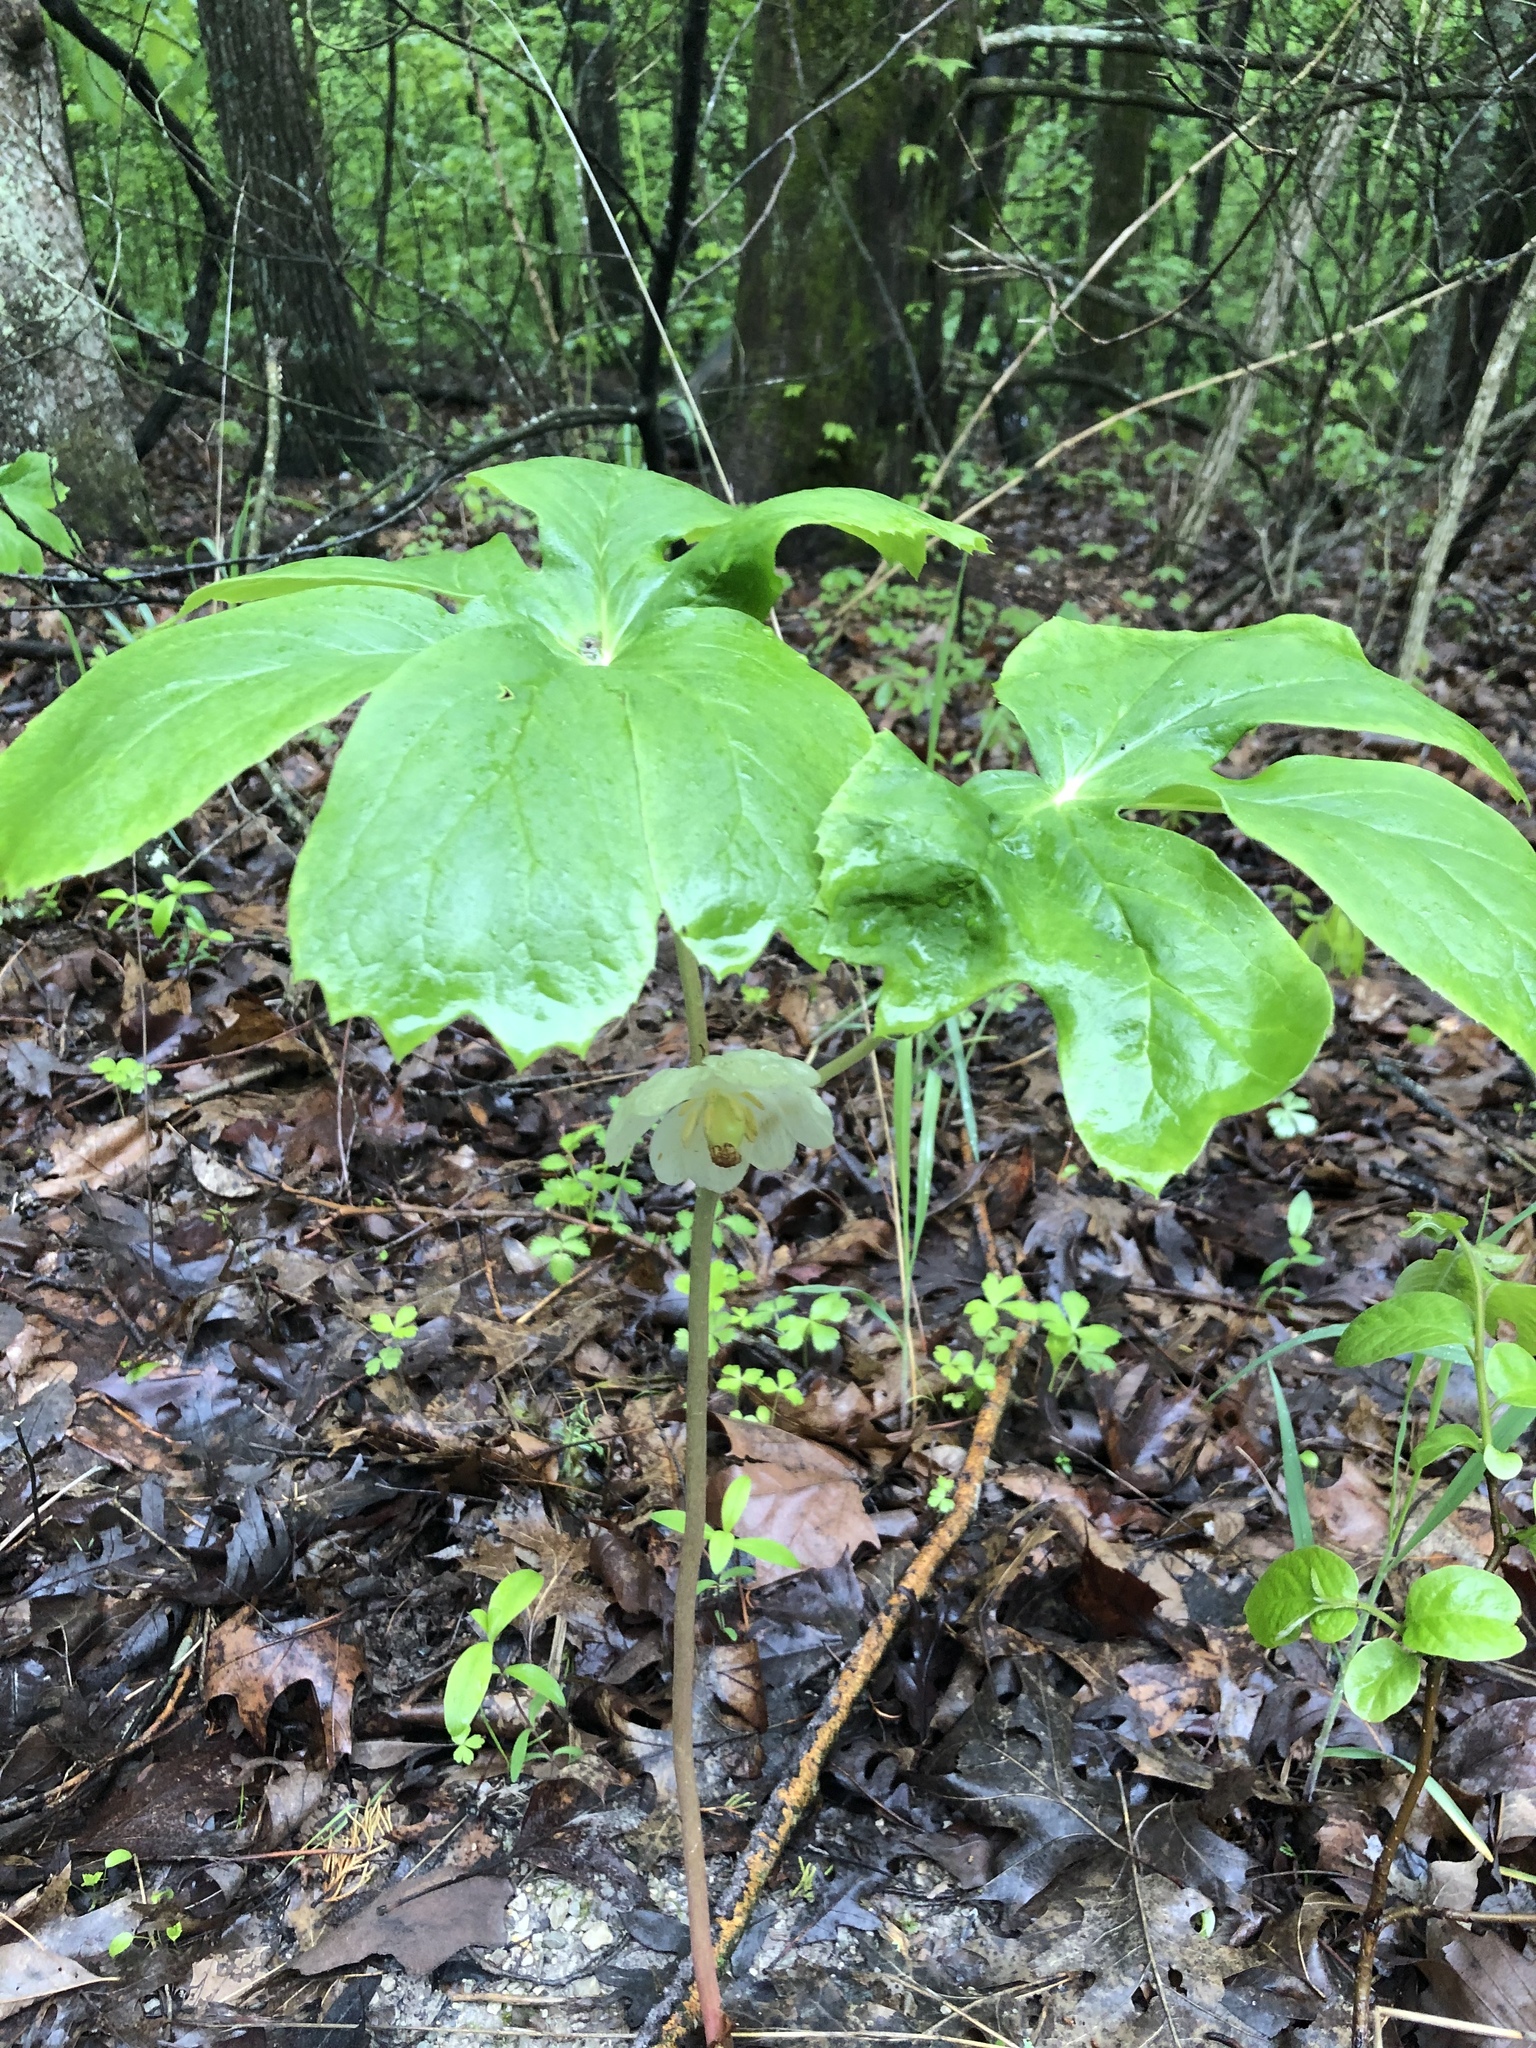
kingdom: Plantae
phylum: Tracheophyta
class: Magnoliopsida
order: Ranunculales
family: Berberidaceae
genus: Podophyllum
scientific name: Podophyllum peltatum
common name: Wild mandrake
